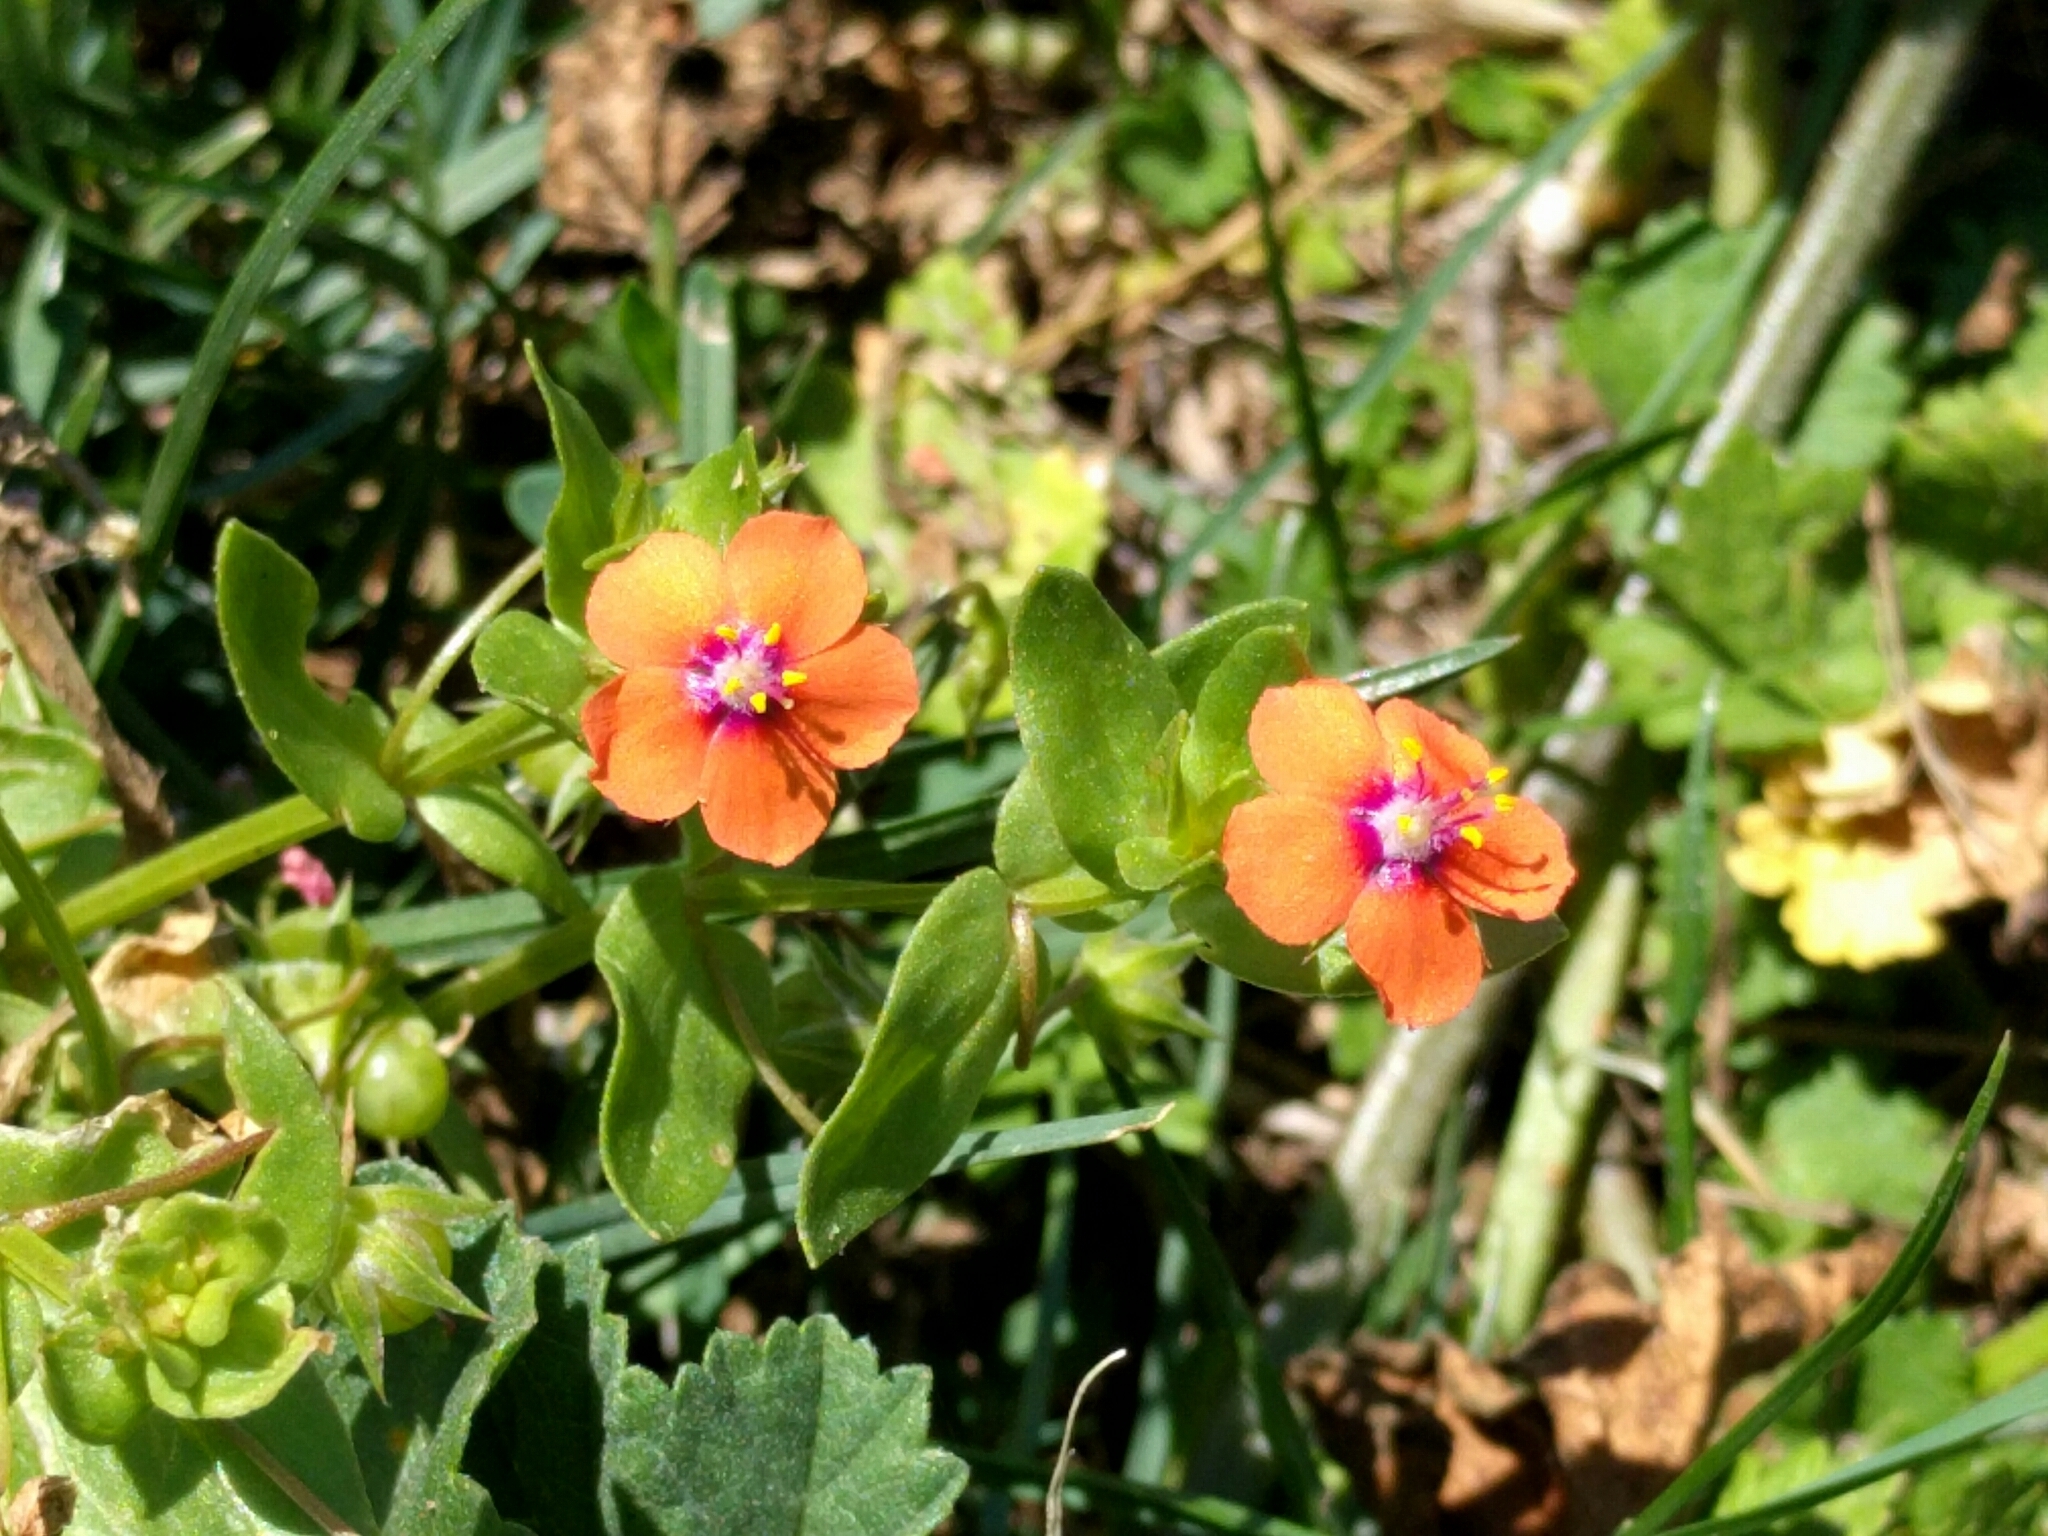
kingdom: Plantae
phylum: Tracheophyta
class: Magnoliopsida
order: Ericales
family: Primulaceae
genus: Lysimachia
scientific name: Lysimachia arvensis
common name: Scarlet pimpernel
